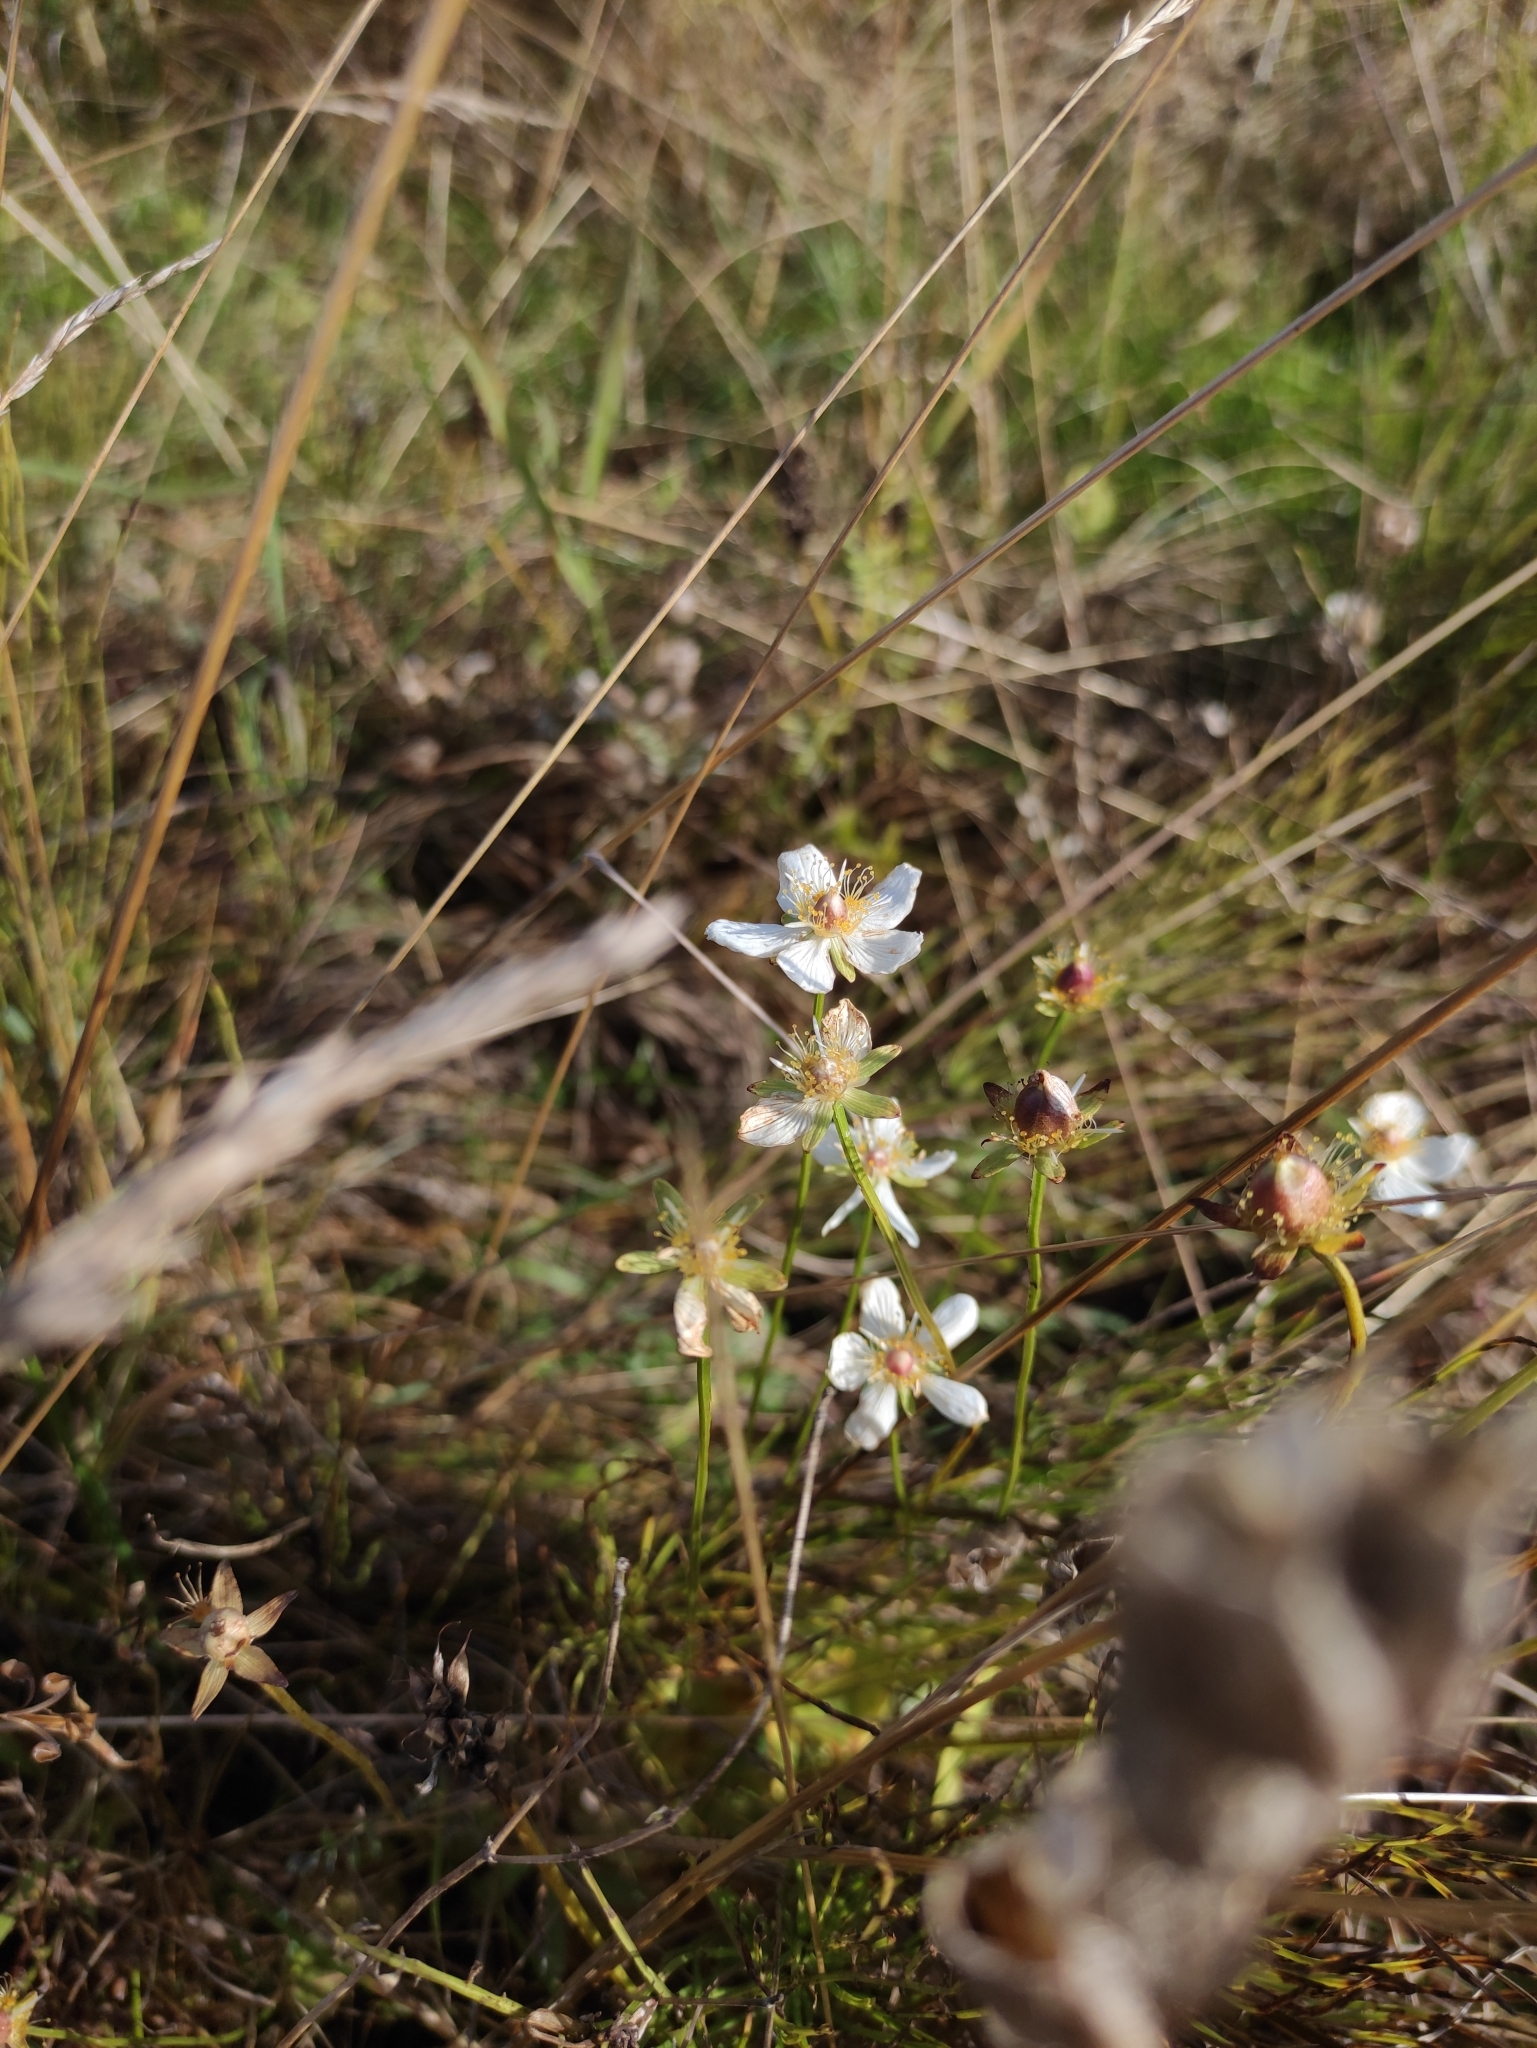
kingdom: Plantae
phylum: Tracheophyta
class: Magnoliopsida
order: Celastrales
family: Parnassiaceae
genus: Parnassia
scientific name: Parnassia palustris
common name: Grass-of-parnassus
